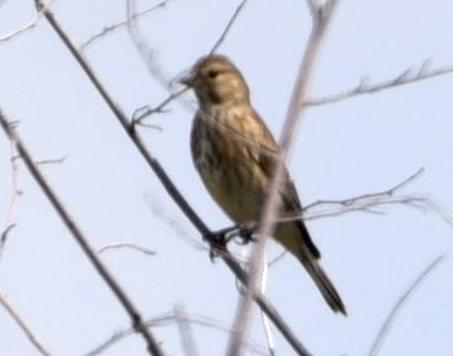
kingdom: Animalia
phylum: Chordata
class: Aves
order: Passeriformes
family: Fringillidae
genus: Linaria
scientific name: Linaria cannabina
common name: Common linnet
